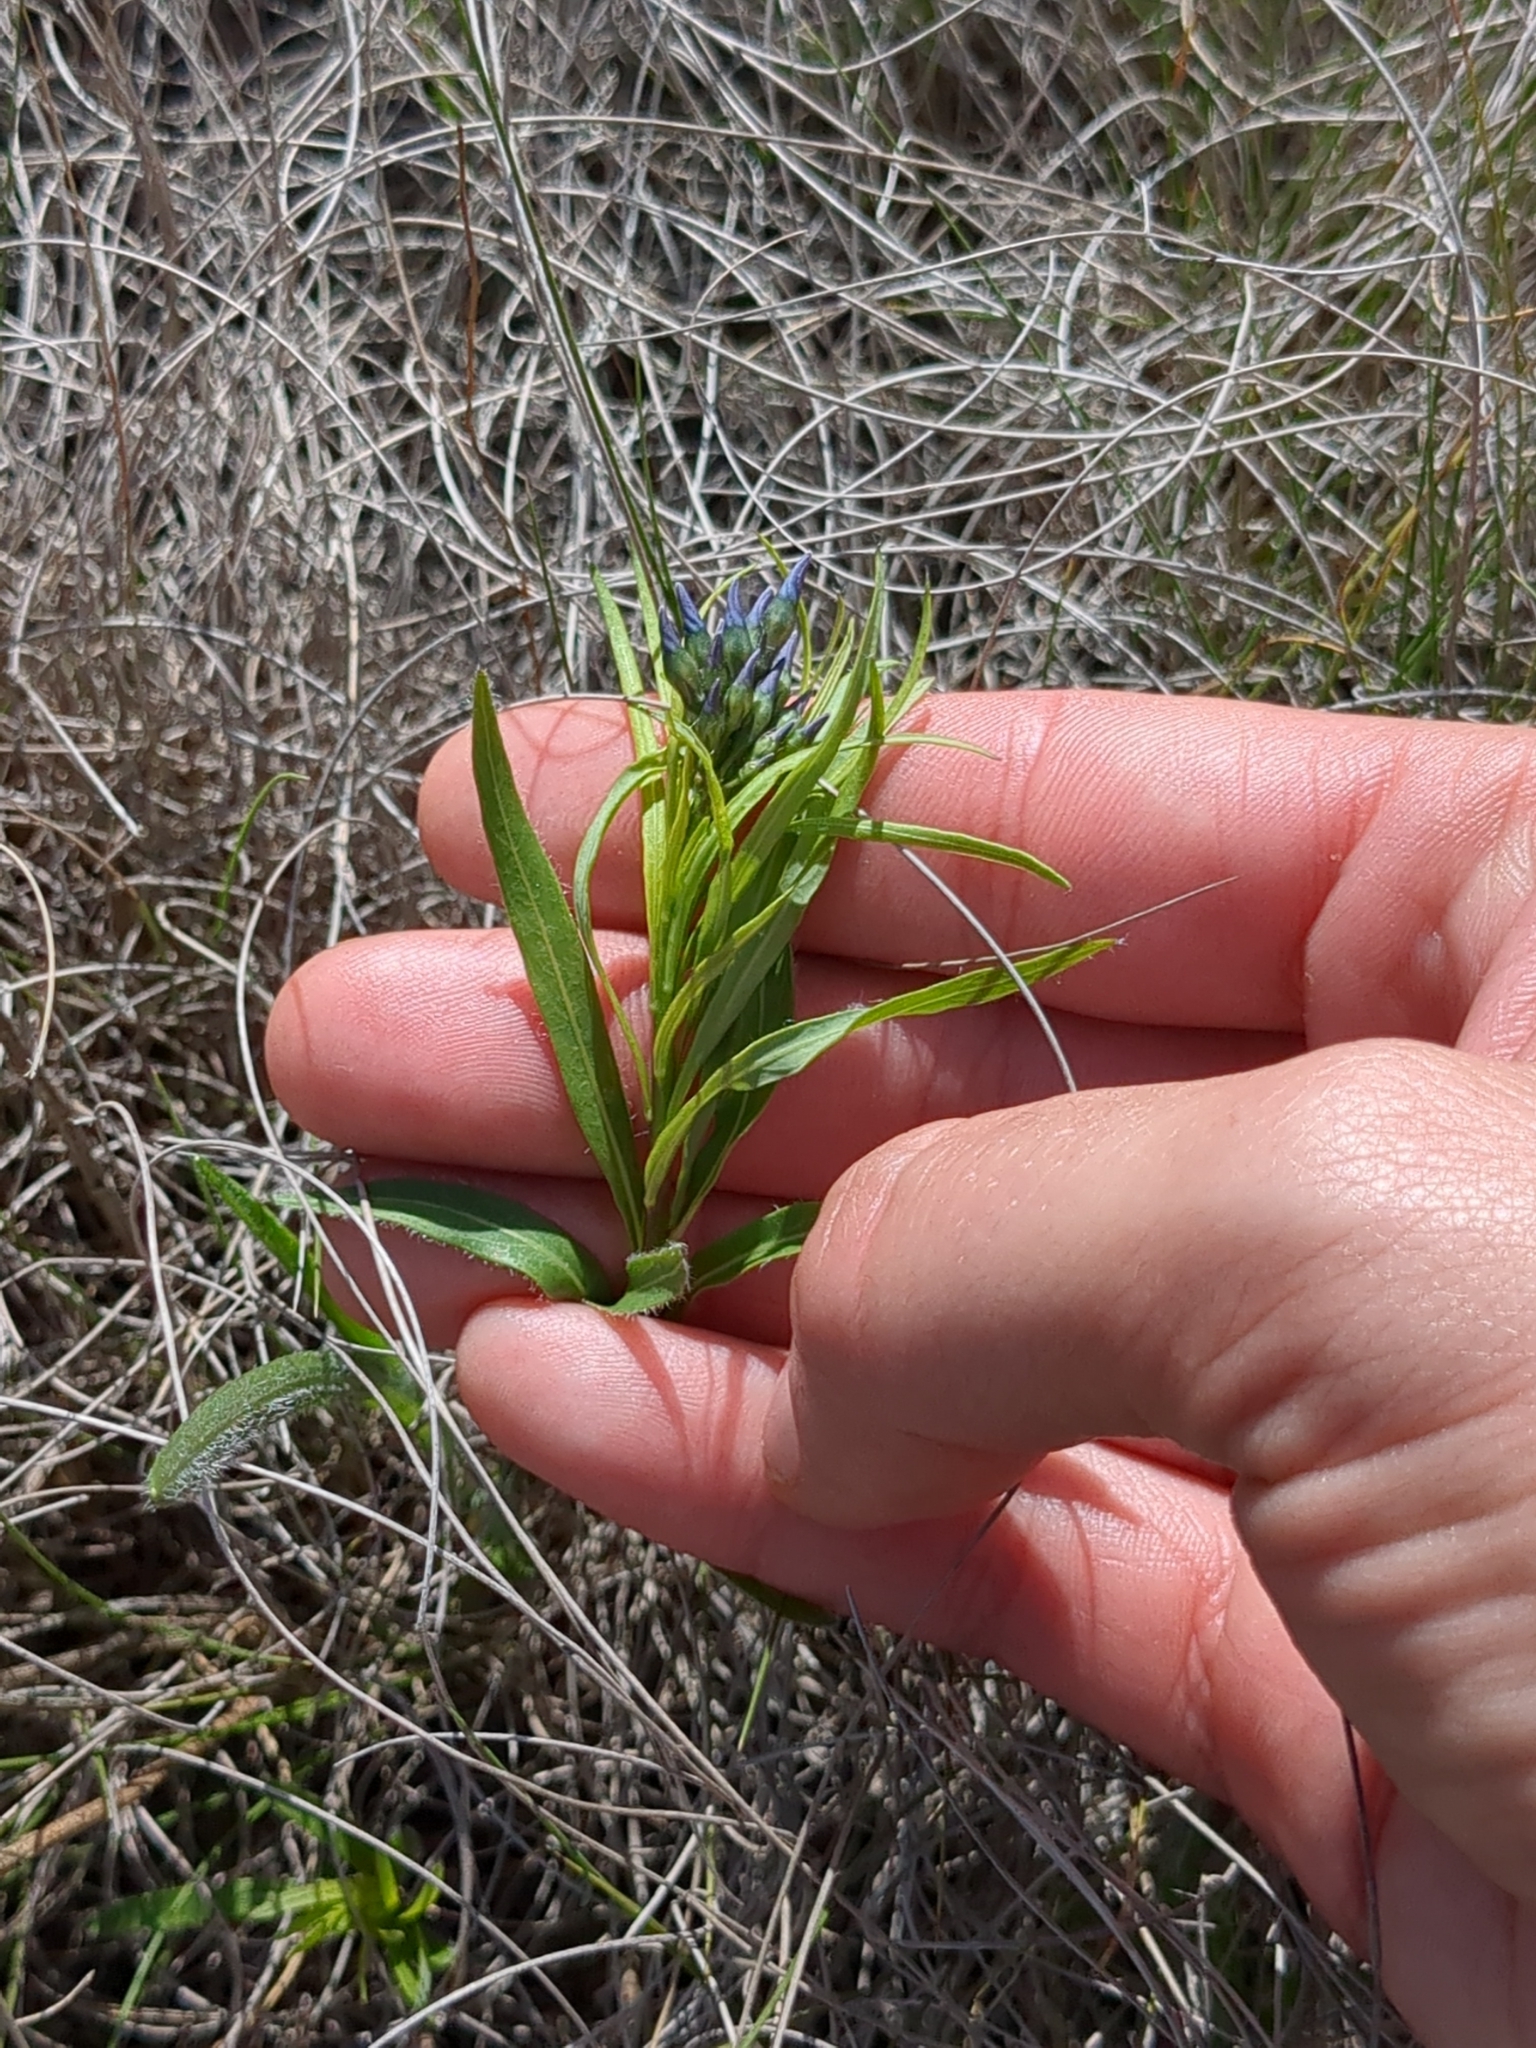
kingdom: Plantae
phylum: Tracheophyta
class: Magnoliopsida
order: Gentianales
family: Apocynaceae
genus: Amsonia
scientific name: Amsonia ciliata
